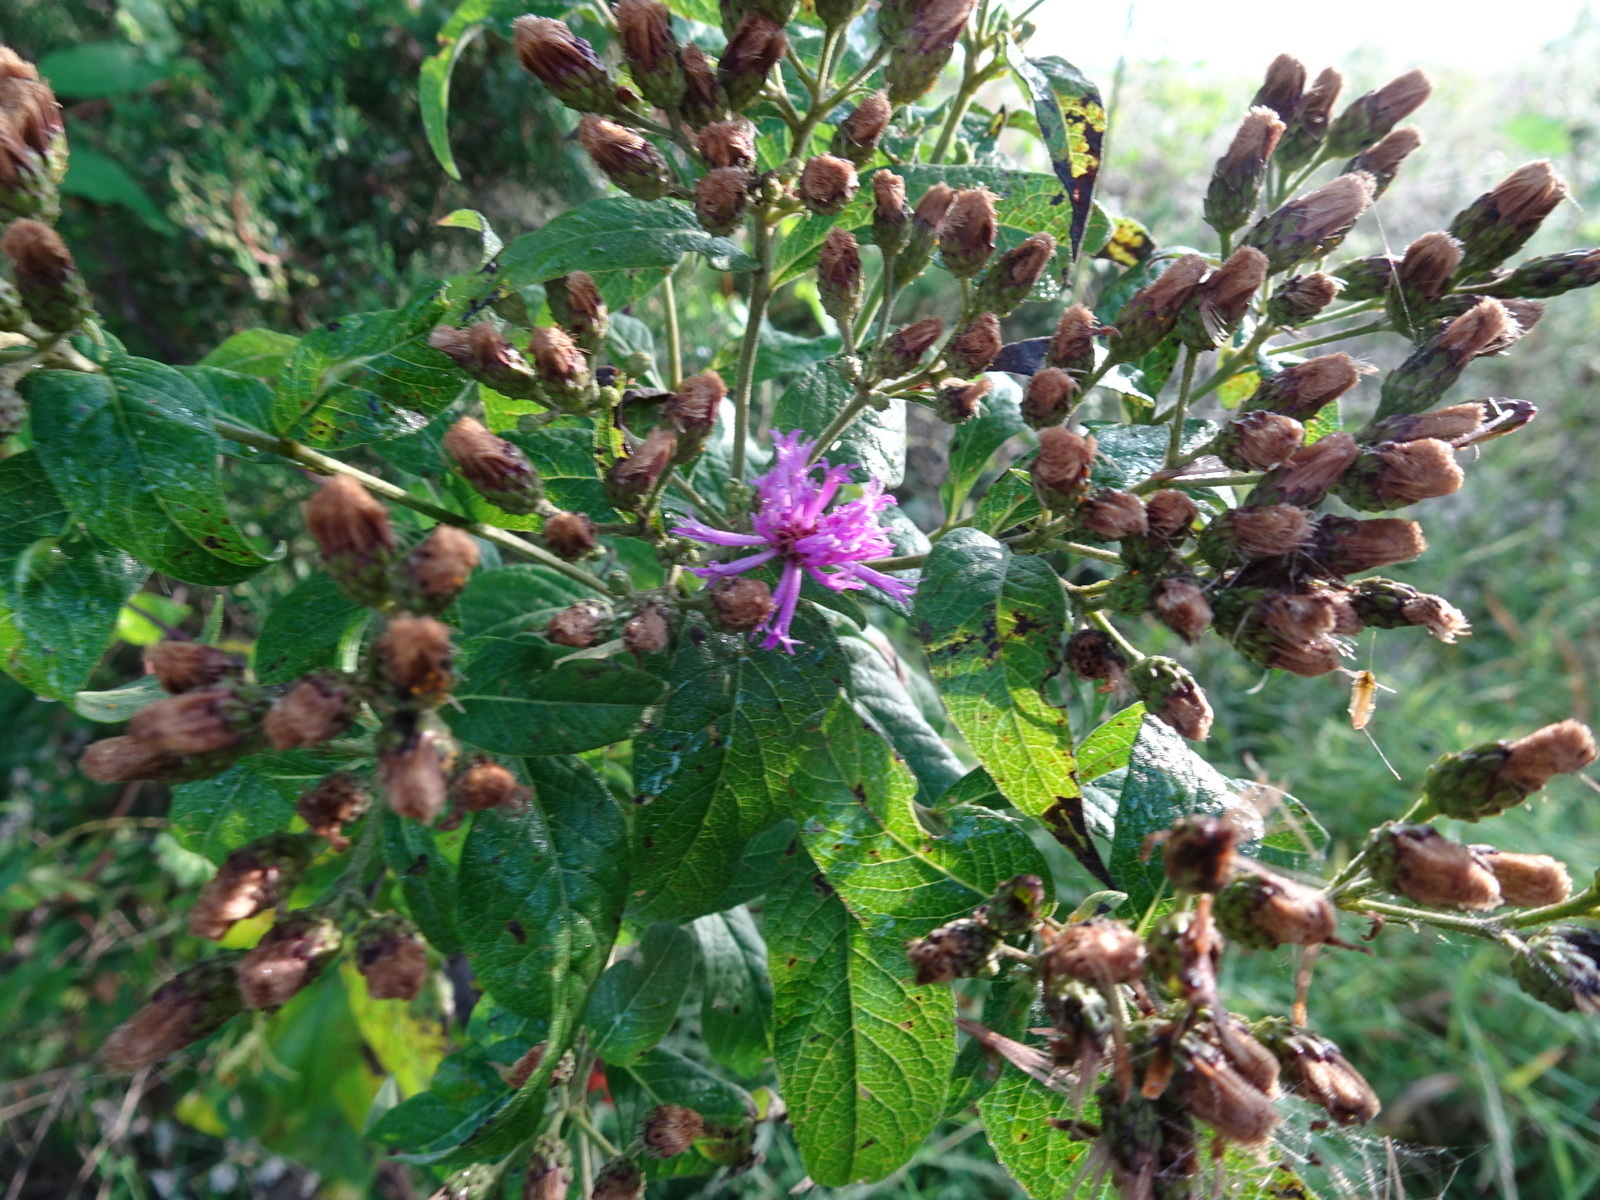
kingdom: Plantae
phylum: Tracheophyta
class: Magnoliopsida
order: Asterales
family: Asteraceae
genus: Vernonia
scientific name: Vernonia baldwinii
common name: Western ironweed
